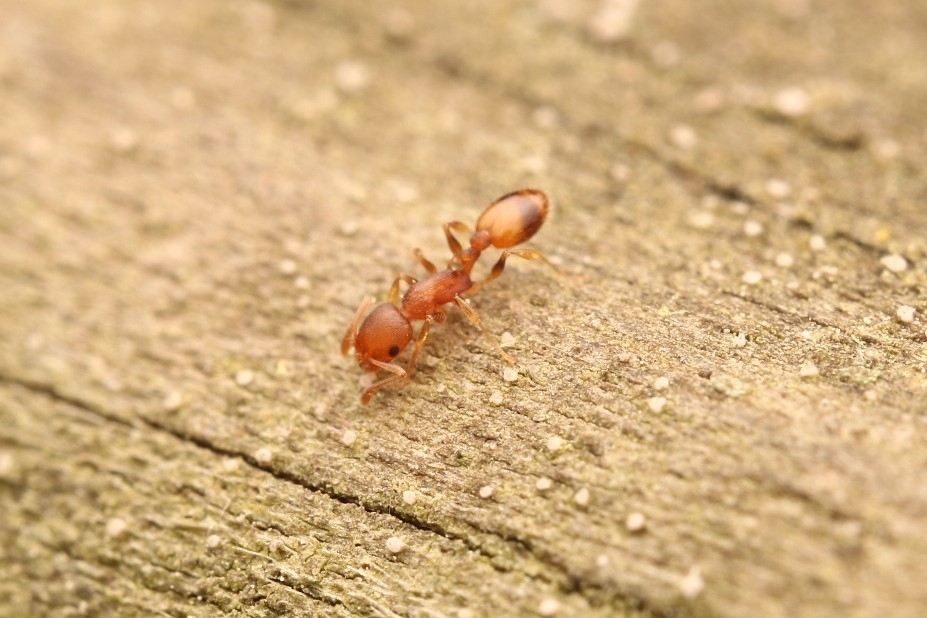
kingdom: Animalia
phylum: Arthropoda
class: Insecta
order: Hymenoptera
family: Formicidae
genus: Temnothorax
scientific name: Temnothorax curvispinosus
